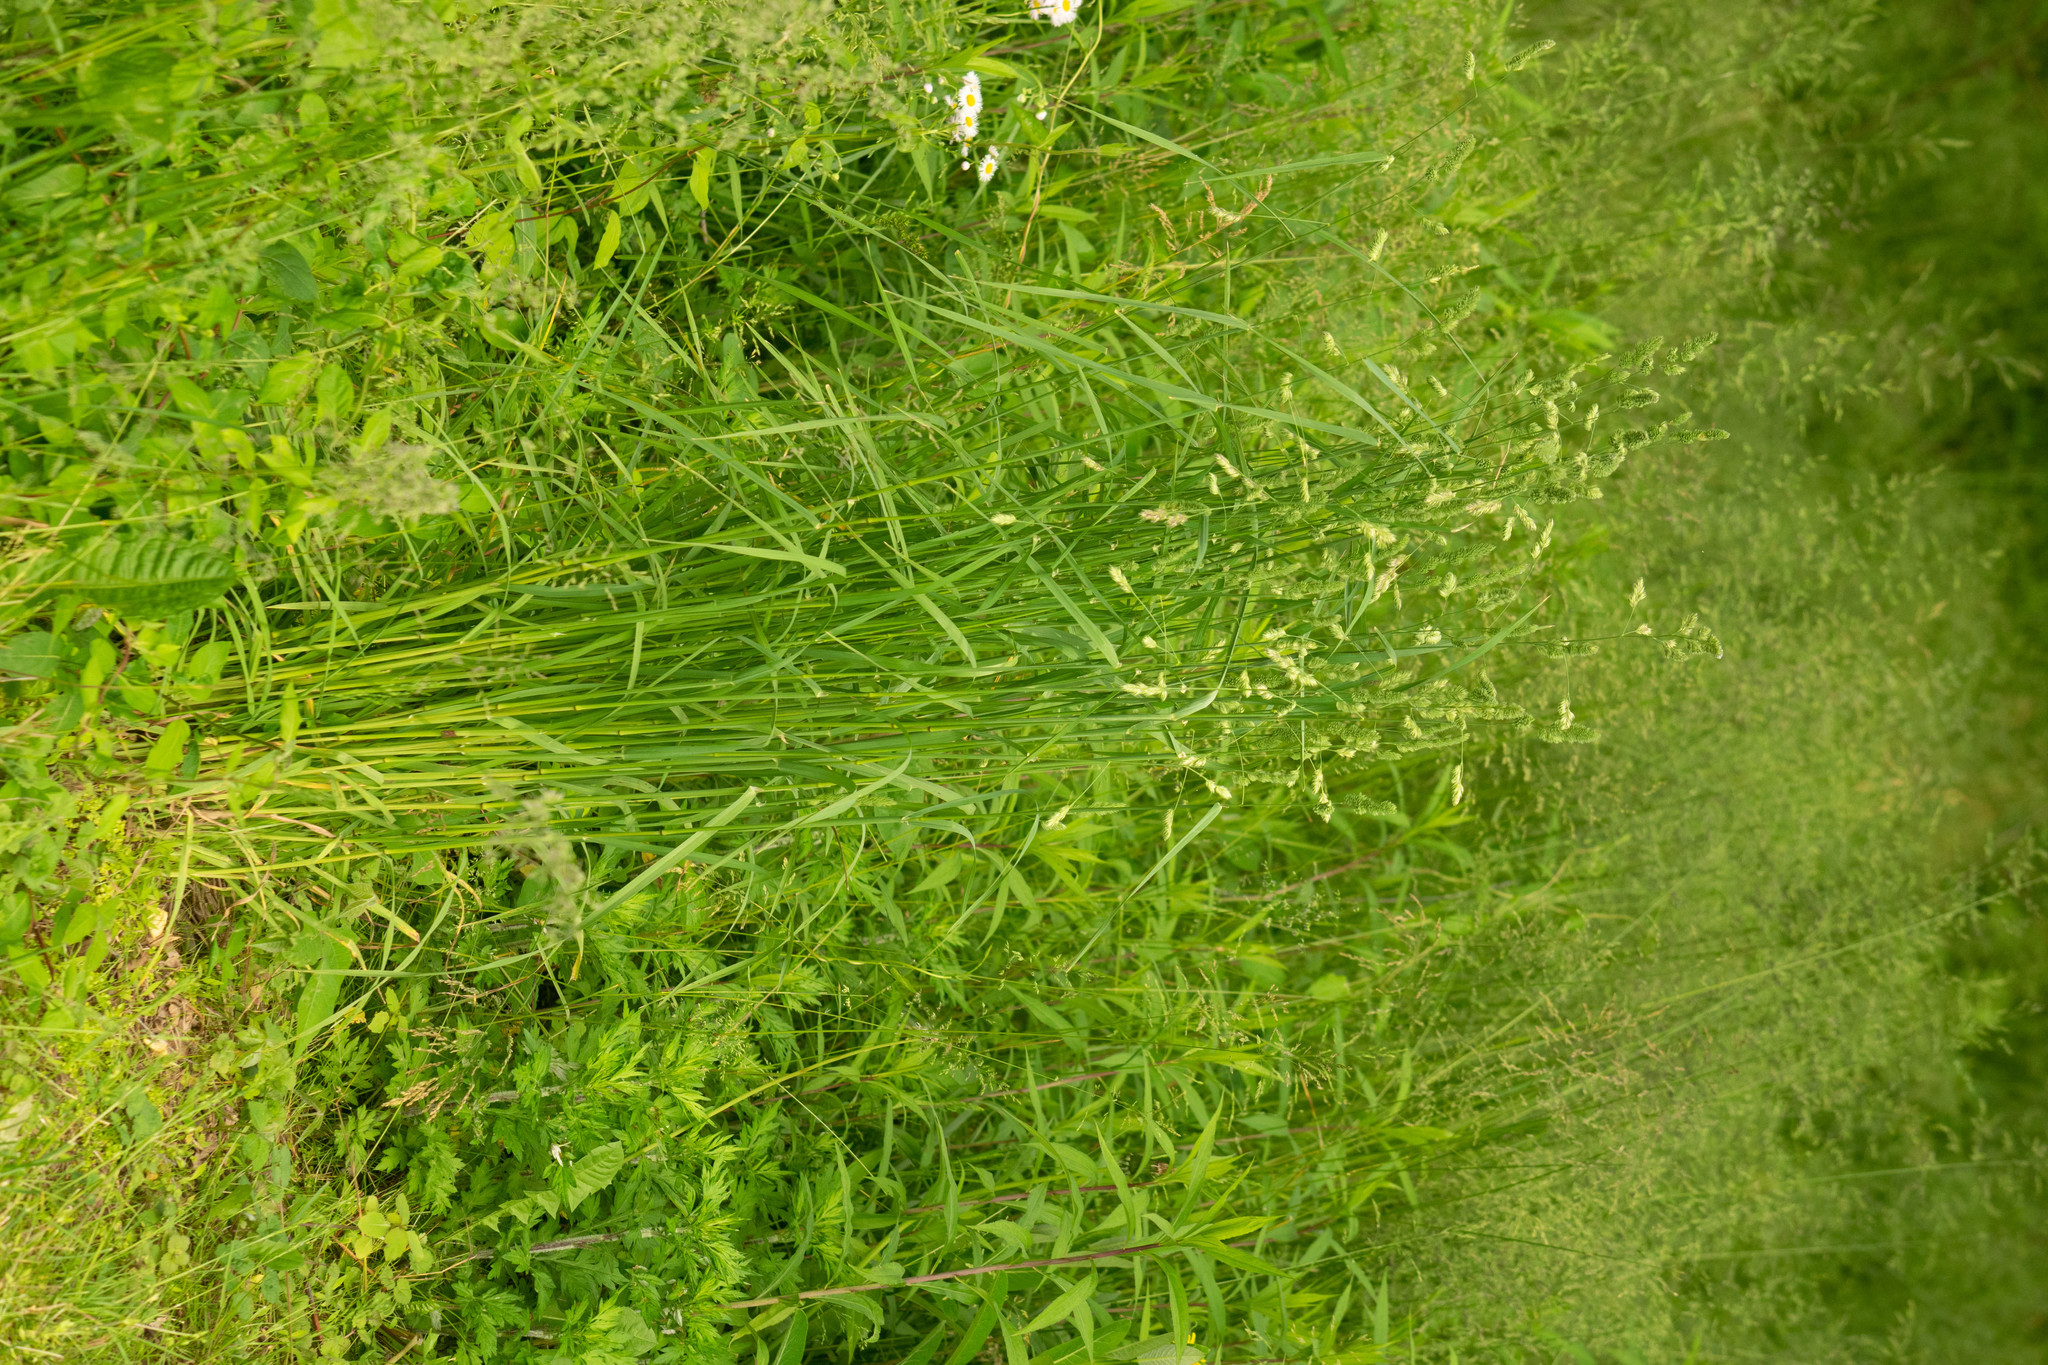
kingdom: Plantae
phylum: Tracheophyta
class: Liliopsida
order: Poales
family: Poaceae
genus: Dactylis
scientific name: Dactylis glomerata
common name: Orchardgrass
